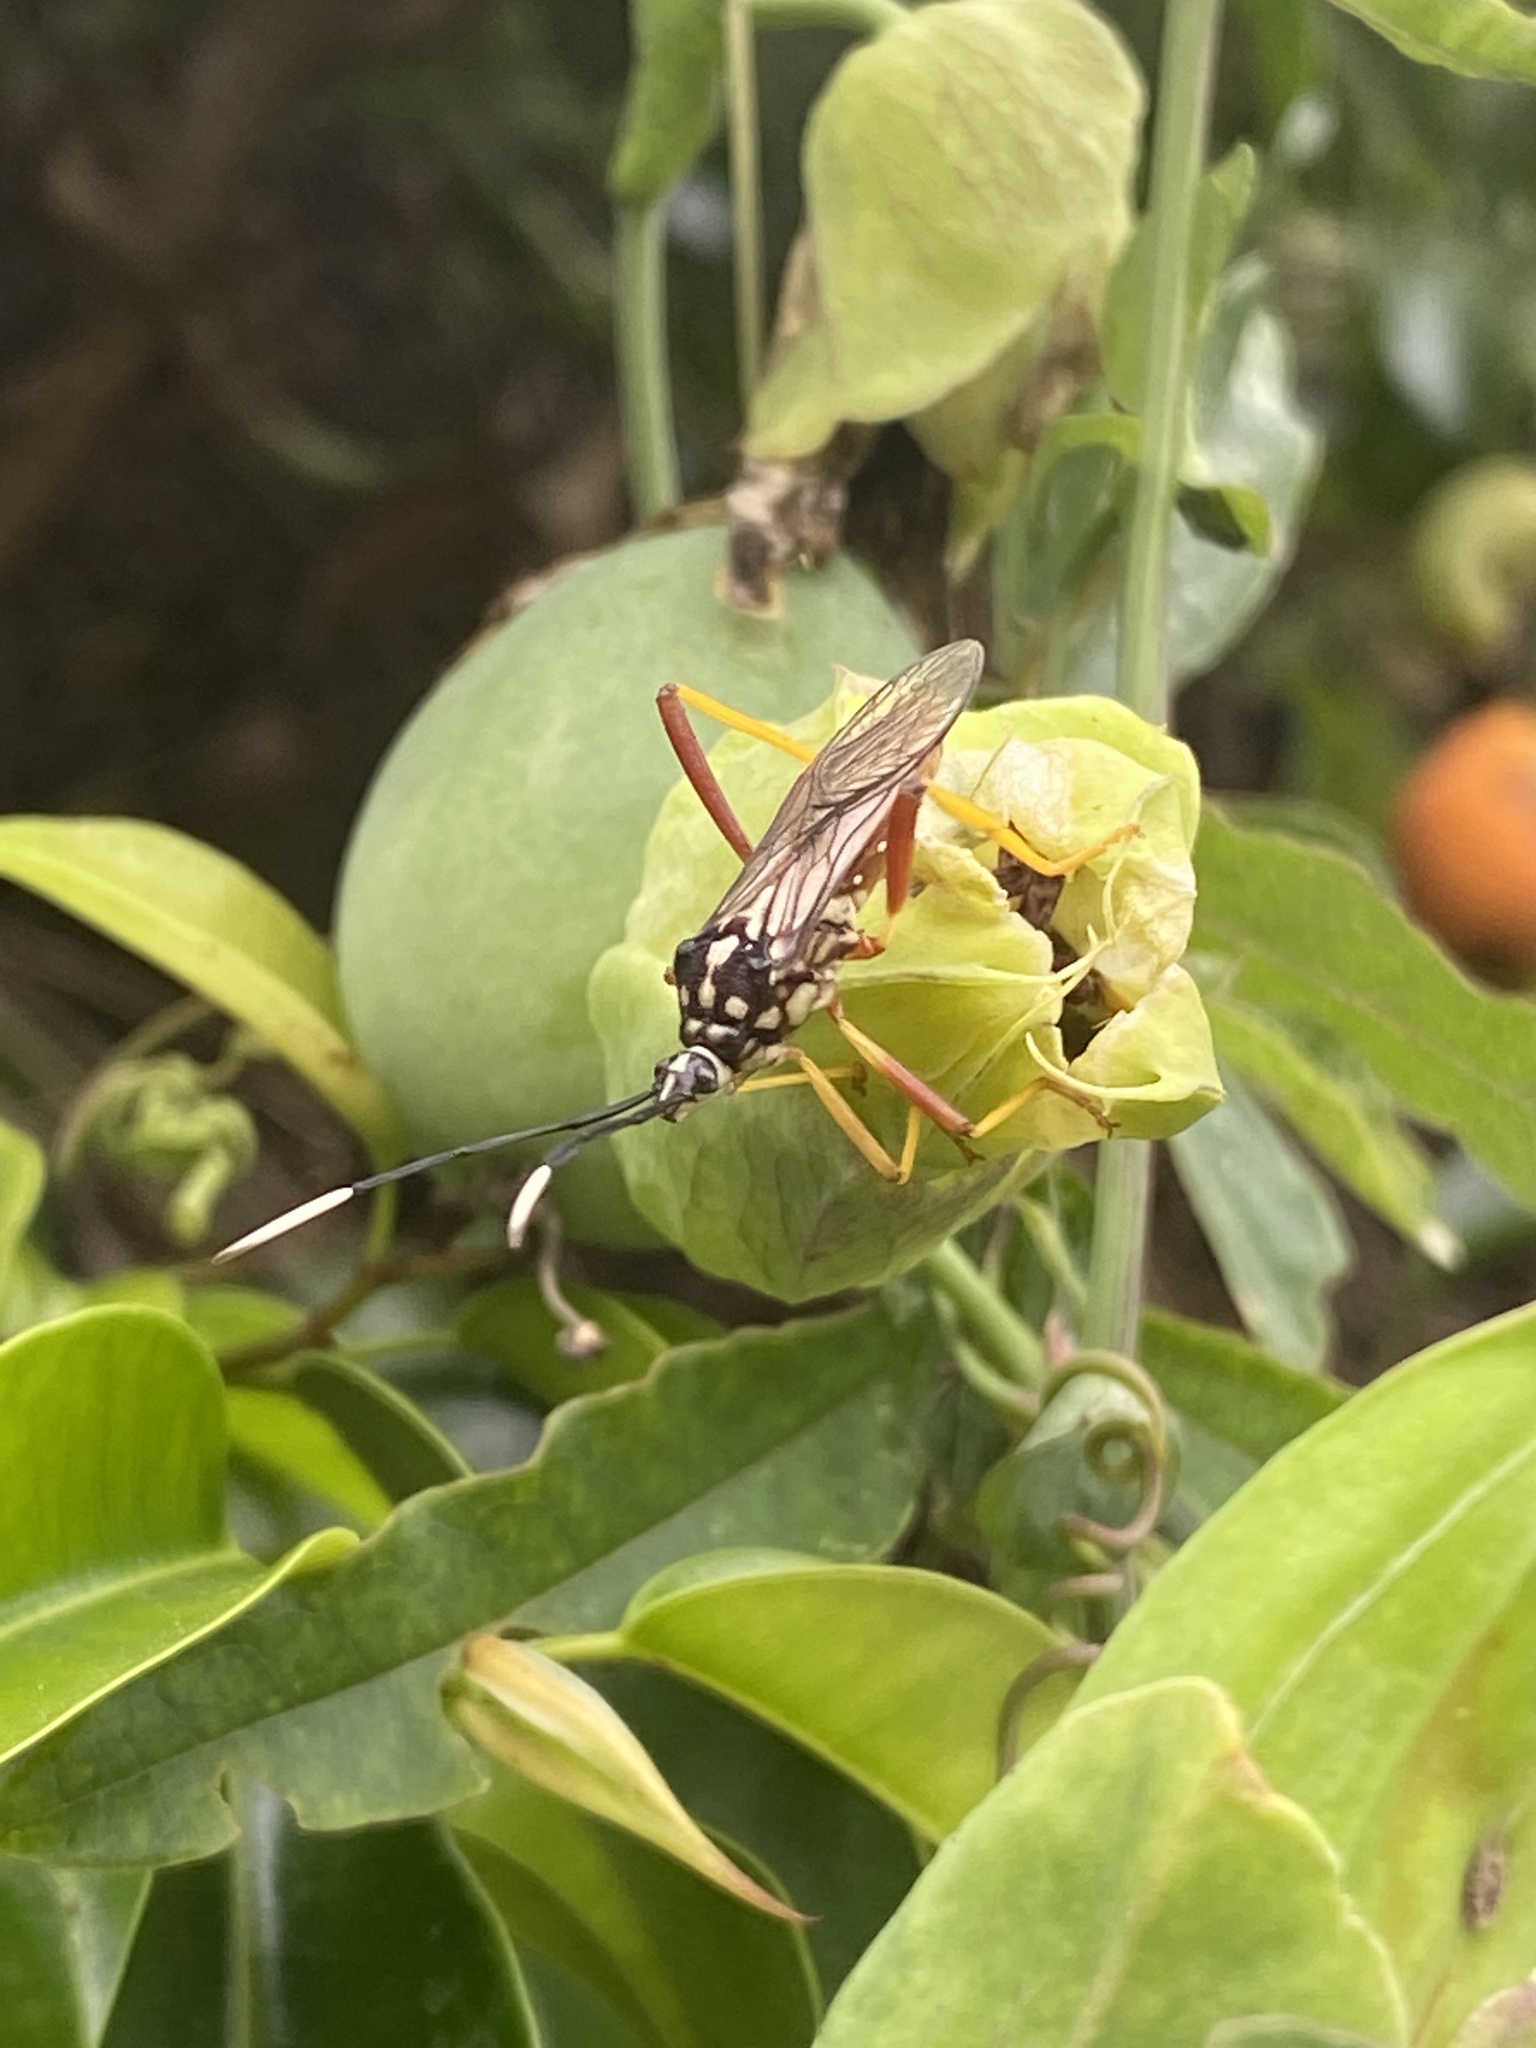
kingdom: Plantae
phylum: Tracheophyta
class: Magnoliopsida
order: Malpighiales
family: Passifloraceae
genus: Passiflora
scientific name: Passiflora caerulea
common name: Blue passionflower
